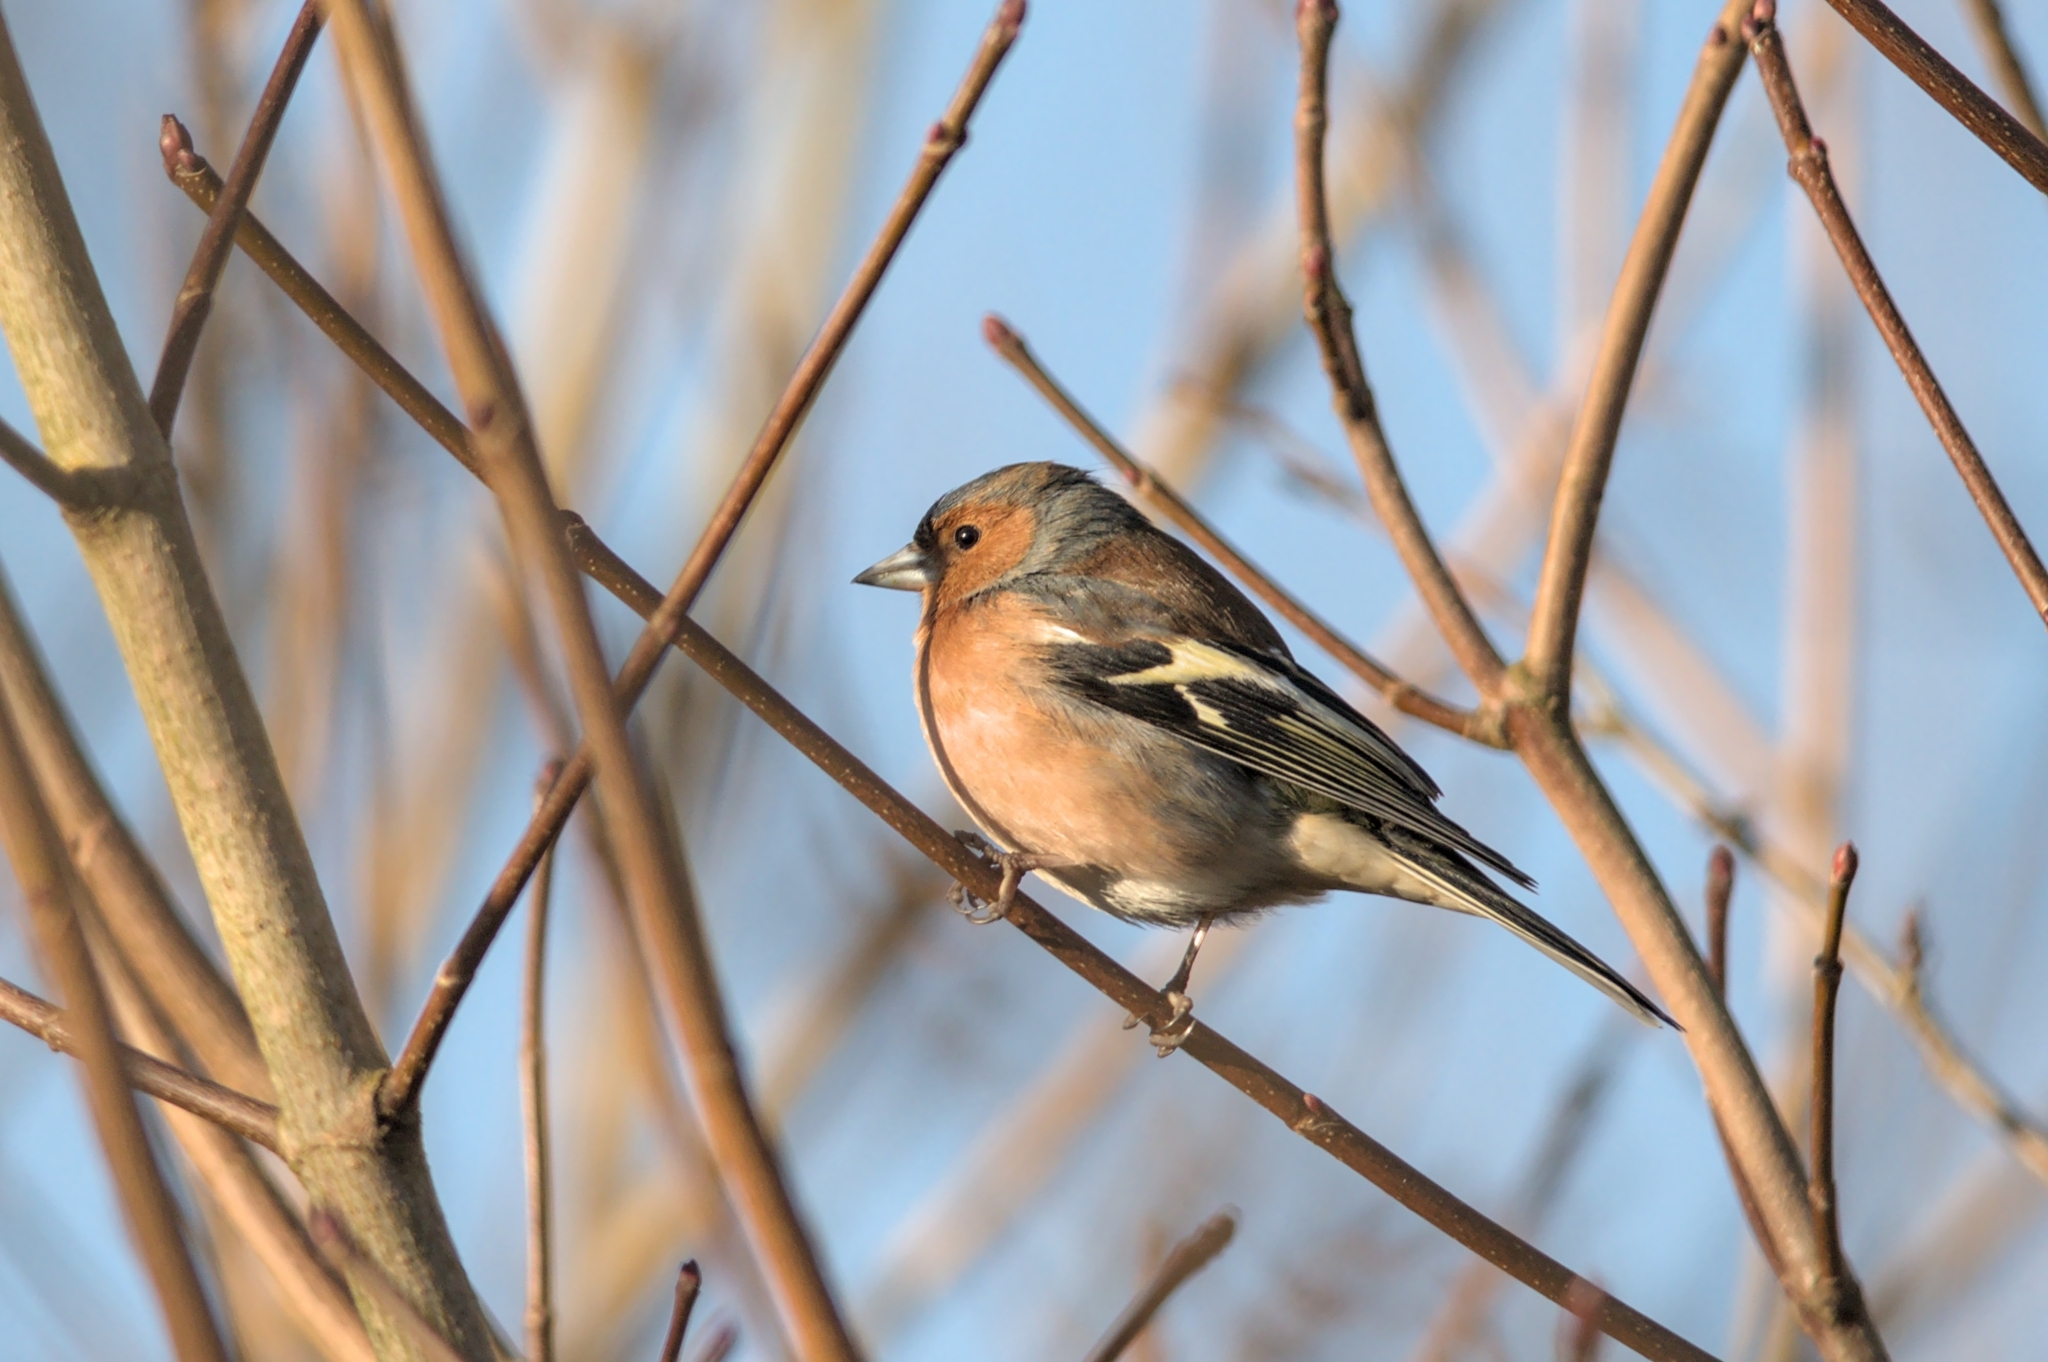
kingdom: Animalia
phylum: Chordata
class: Aves
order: Passeriformes
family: Fringillidae
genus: Fringilla
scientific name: Fringilla coelebs
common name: Common chaffinch
